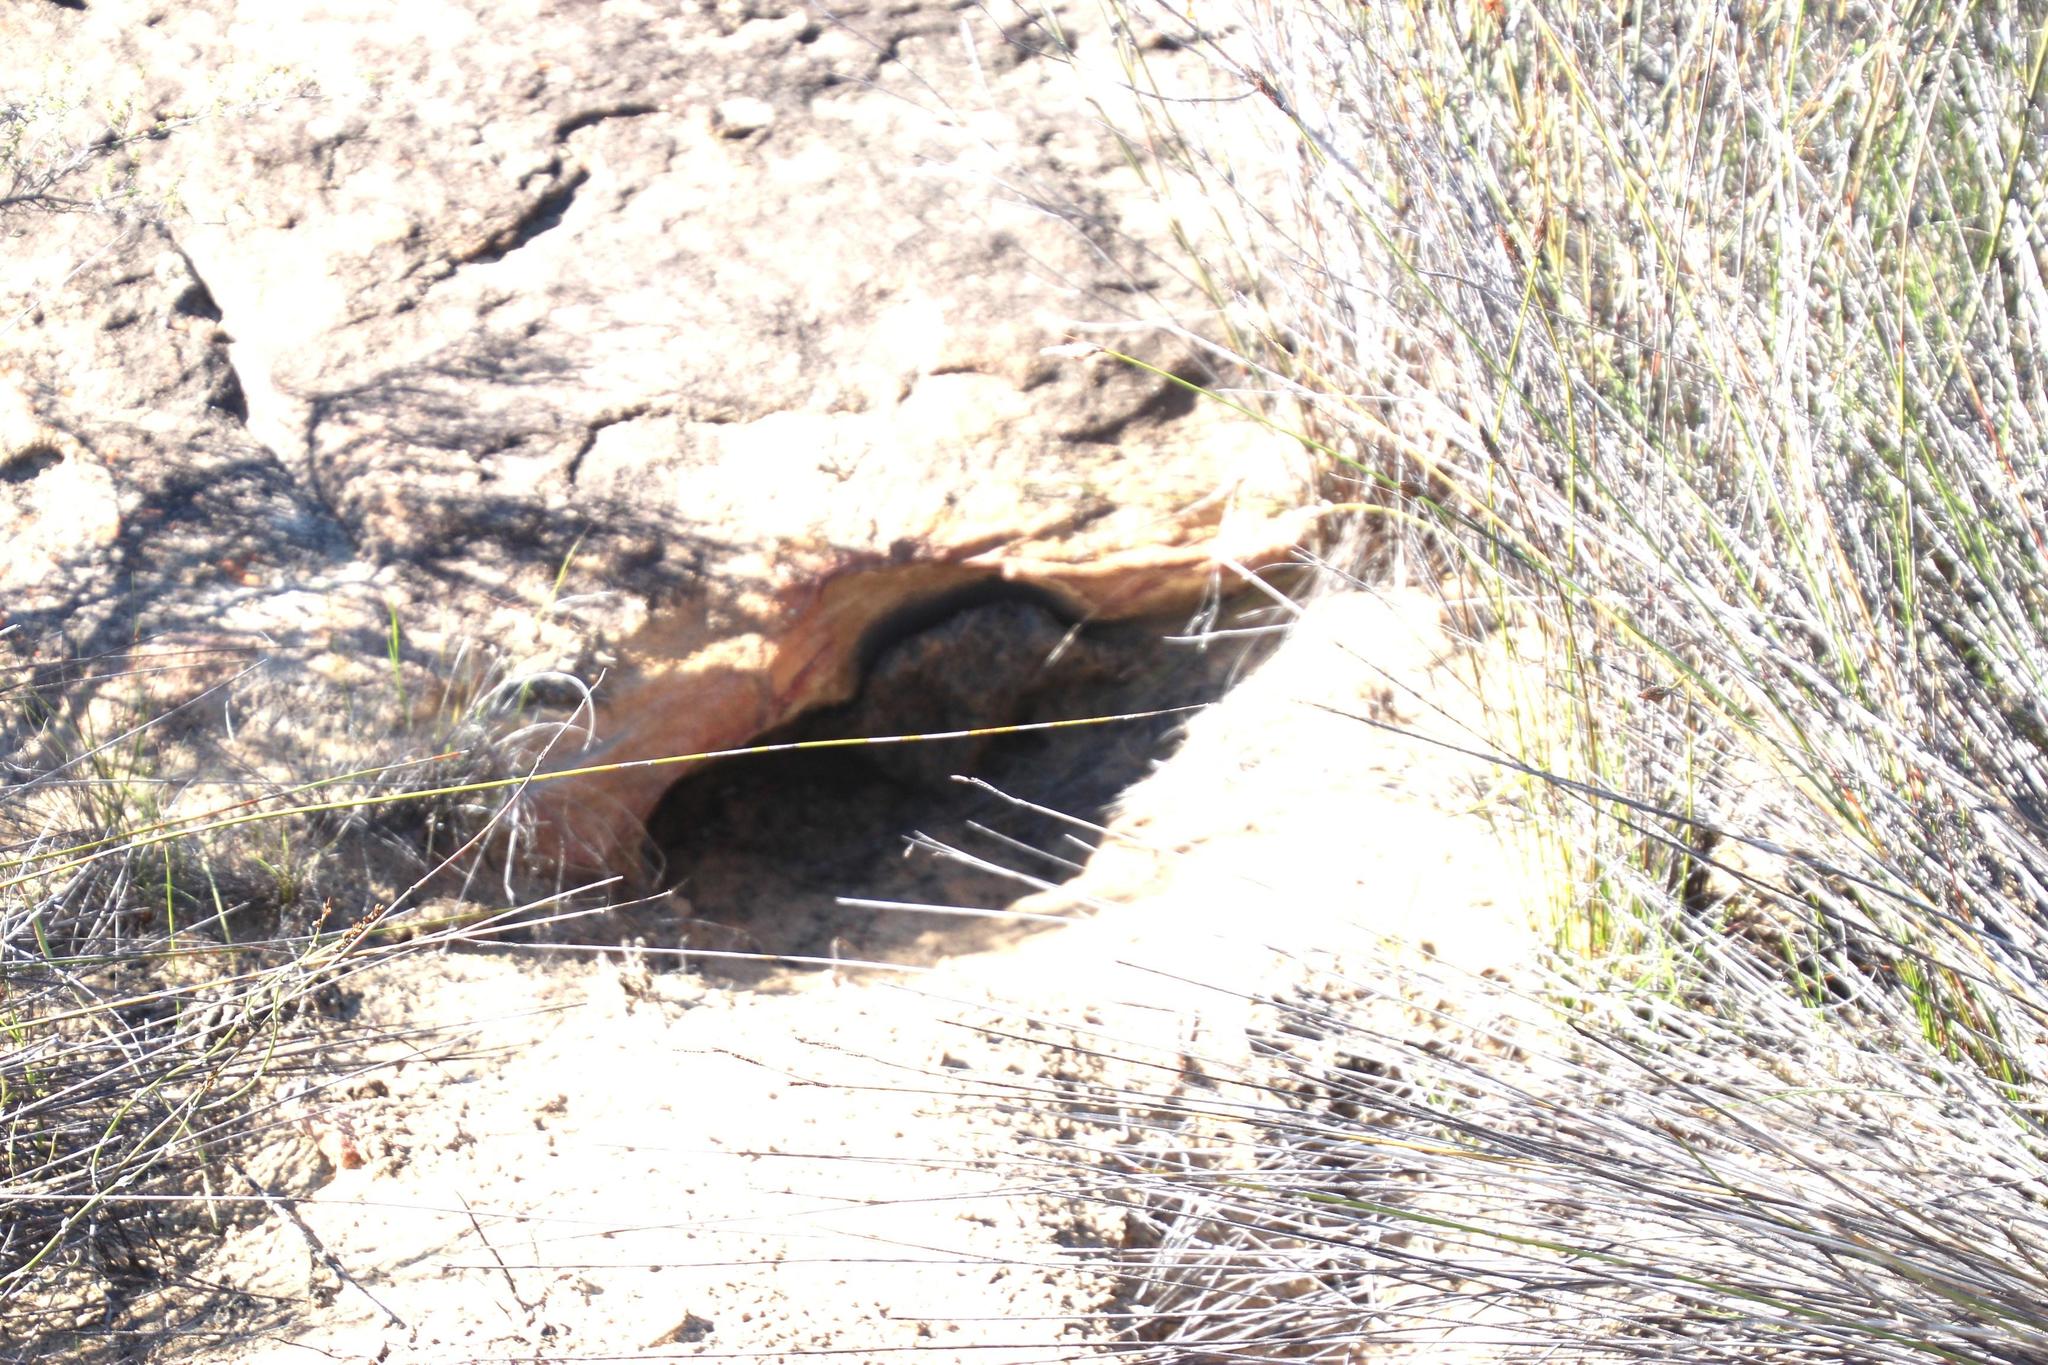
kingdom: Animalia
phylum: Chordata
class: Mammalia
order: Carnivora
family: Hyaenidae
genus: Proteles
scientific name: Proteles cristata
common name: Aardwolf
